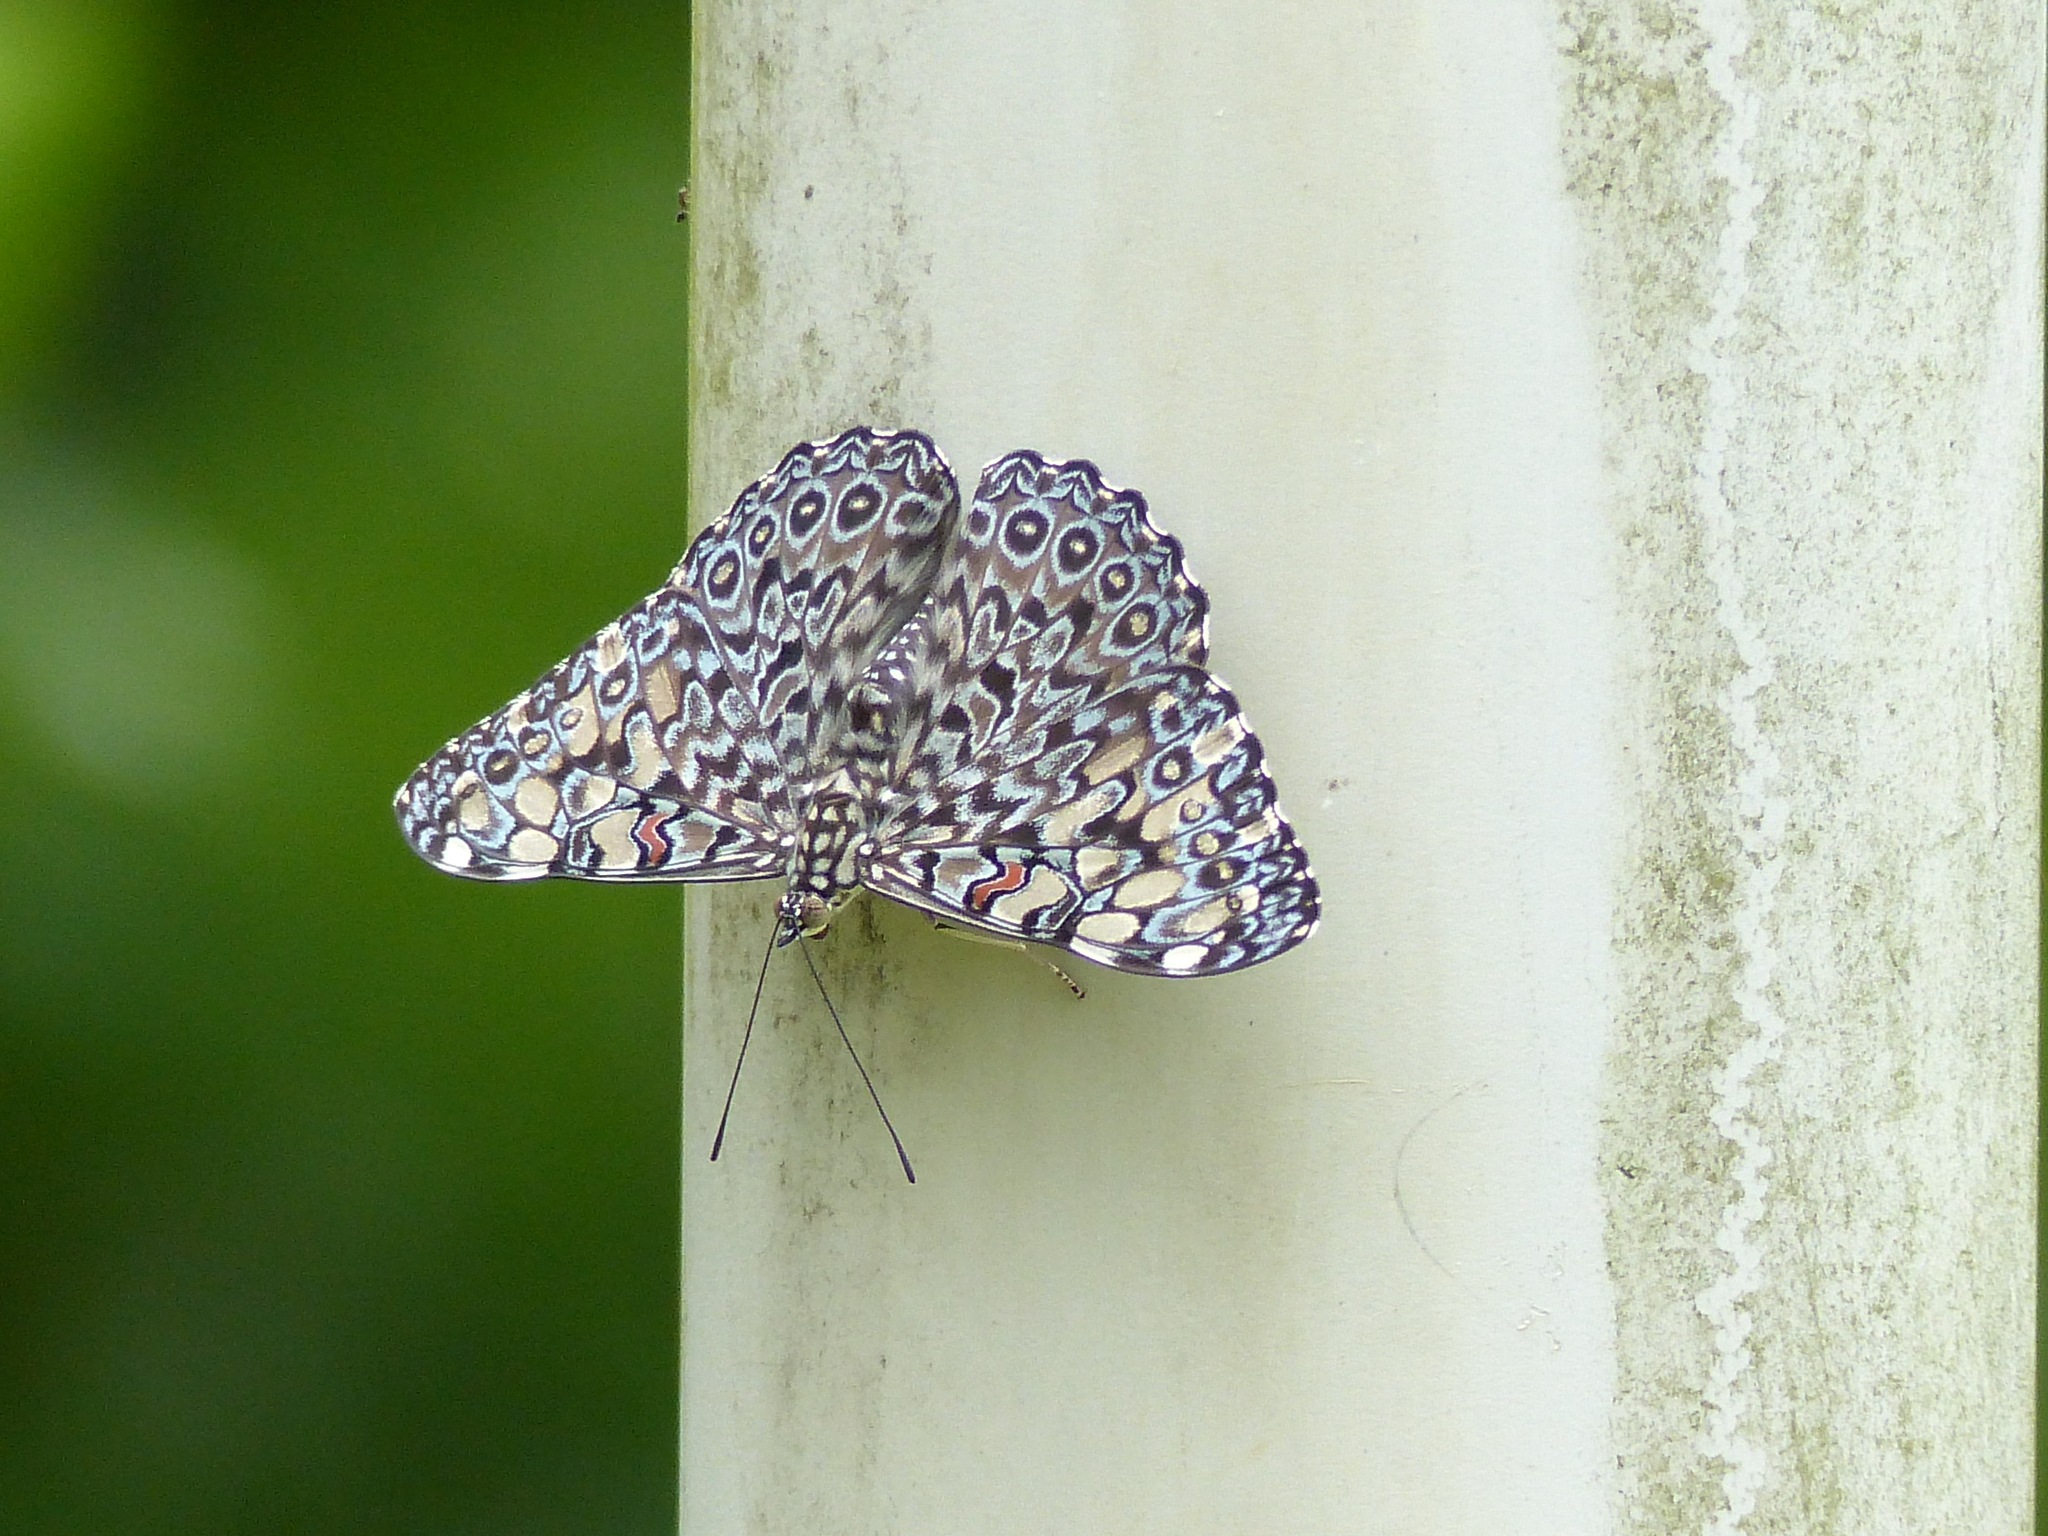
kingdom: Animalia
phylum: Arthropoda
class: Insecta
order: Lepidoptera
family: Nymphalidae
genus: Hamadryas
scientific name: Hamadryas feronia
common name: Variable cracker
